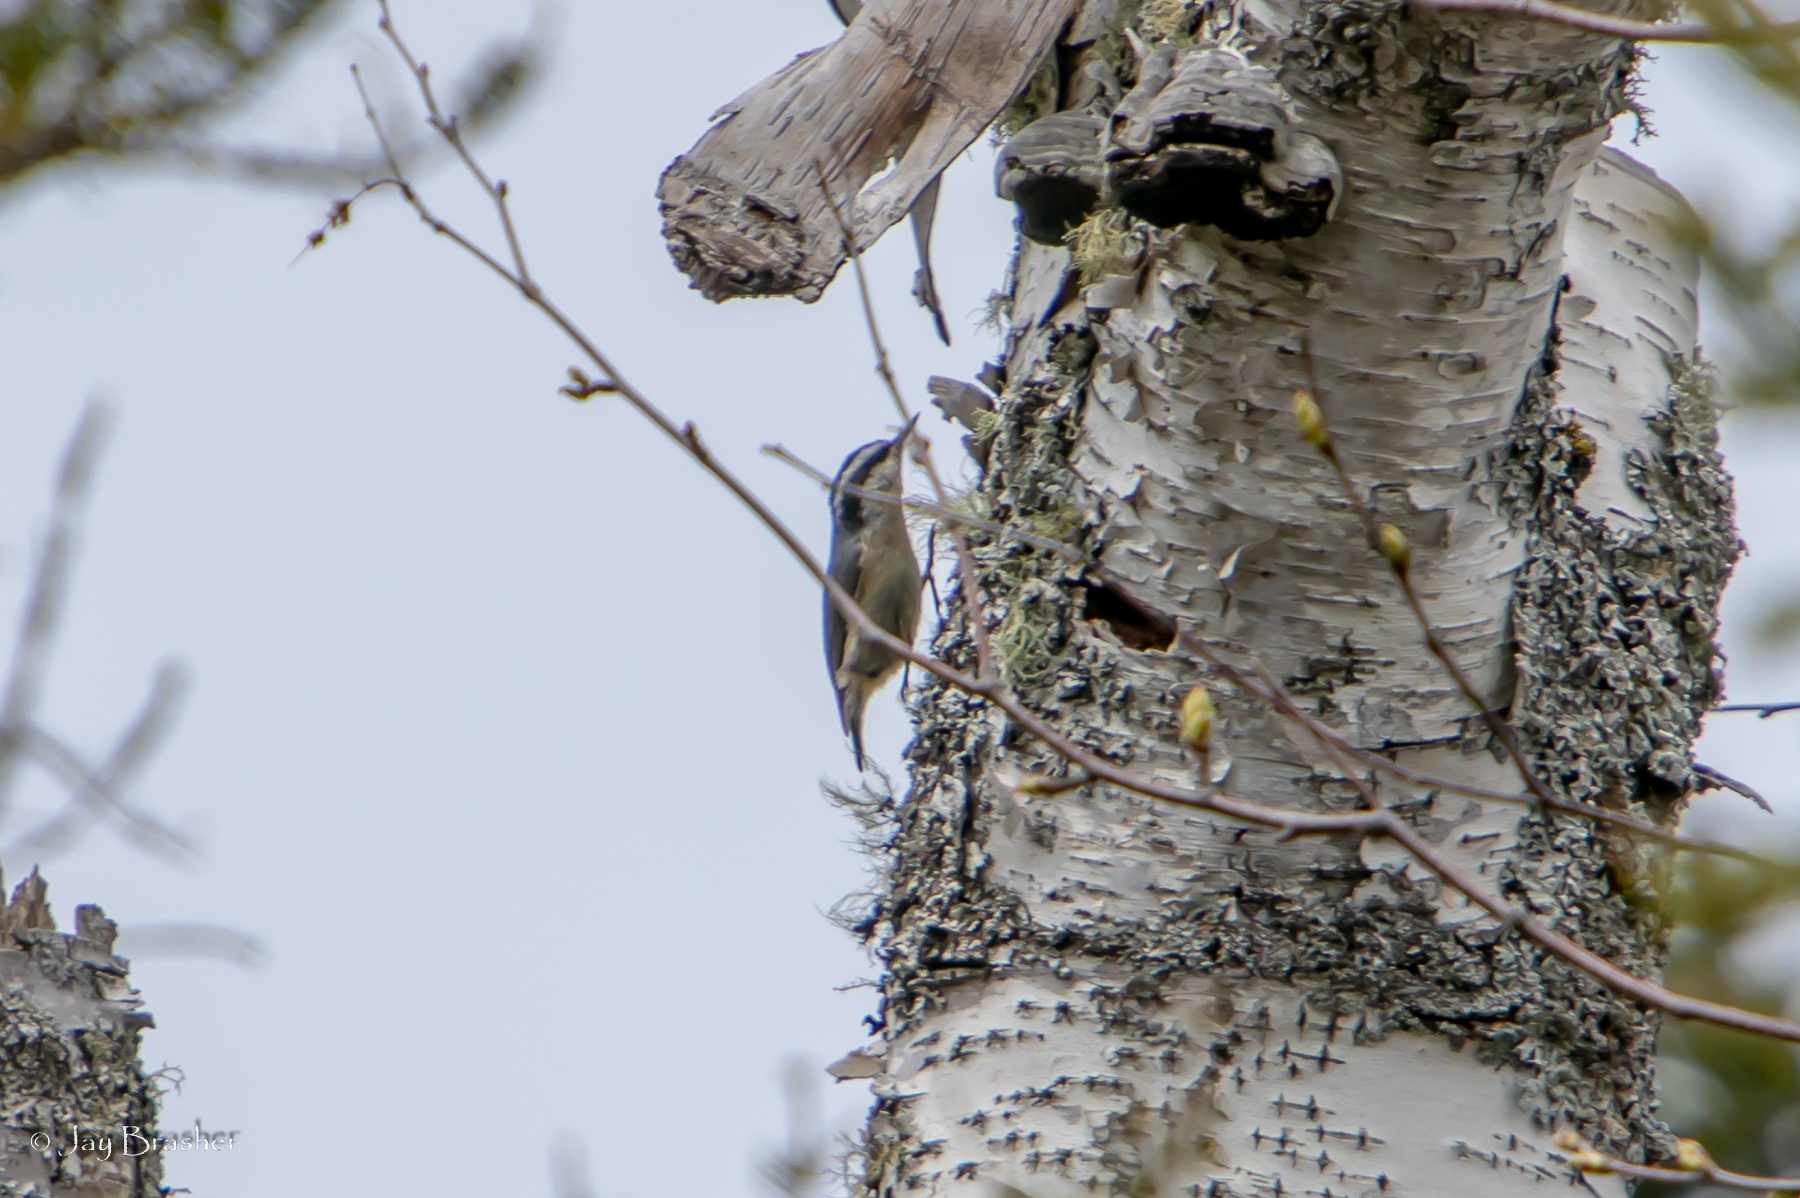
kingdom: Animalia
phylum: Chordata
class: Aves
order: Passeriformes
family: Sittidae
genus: Sitta
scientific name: Sitta canadensis
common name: Red-breasted nuthatch
